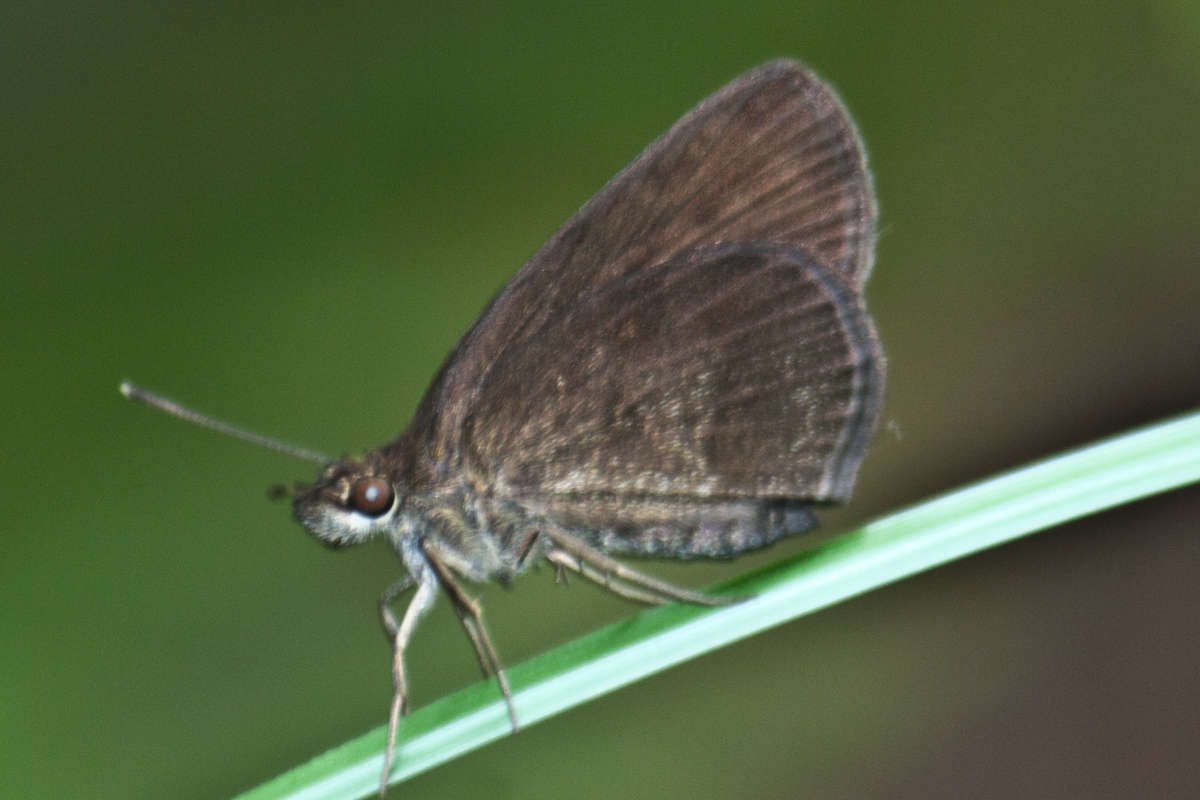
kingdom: Animalia
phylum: Arthropoda
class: Insecta
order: Lepidoptera
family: Hesperiidae
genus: Astictopterus
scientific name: Astictopterus jama
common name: Forest hopper
